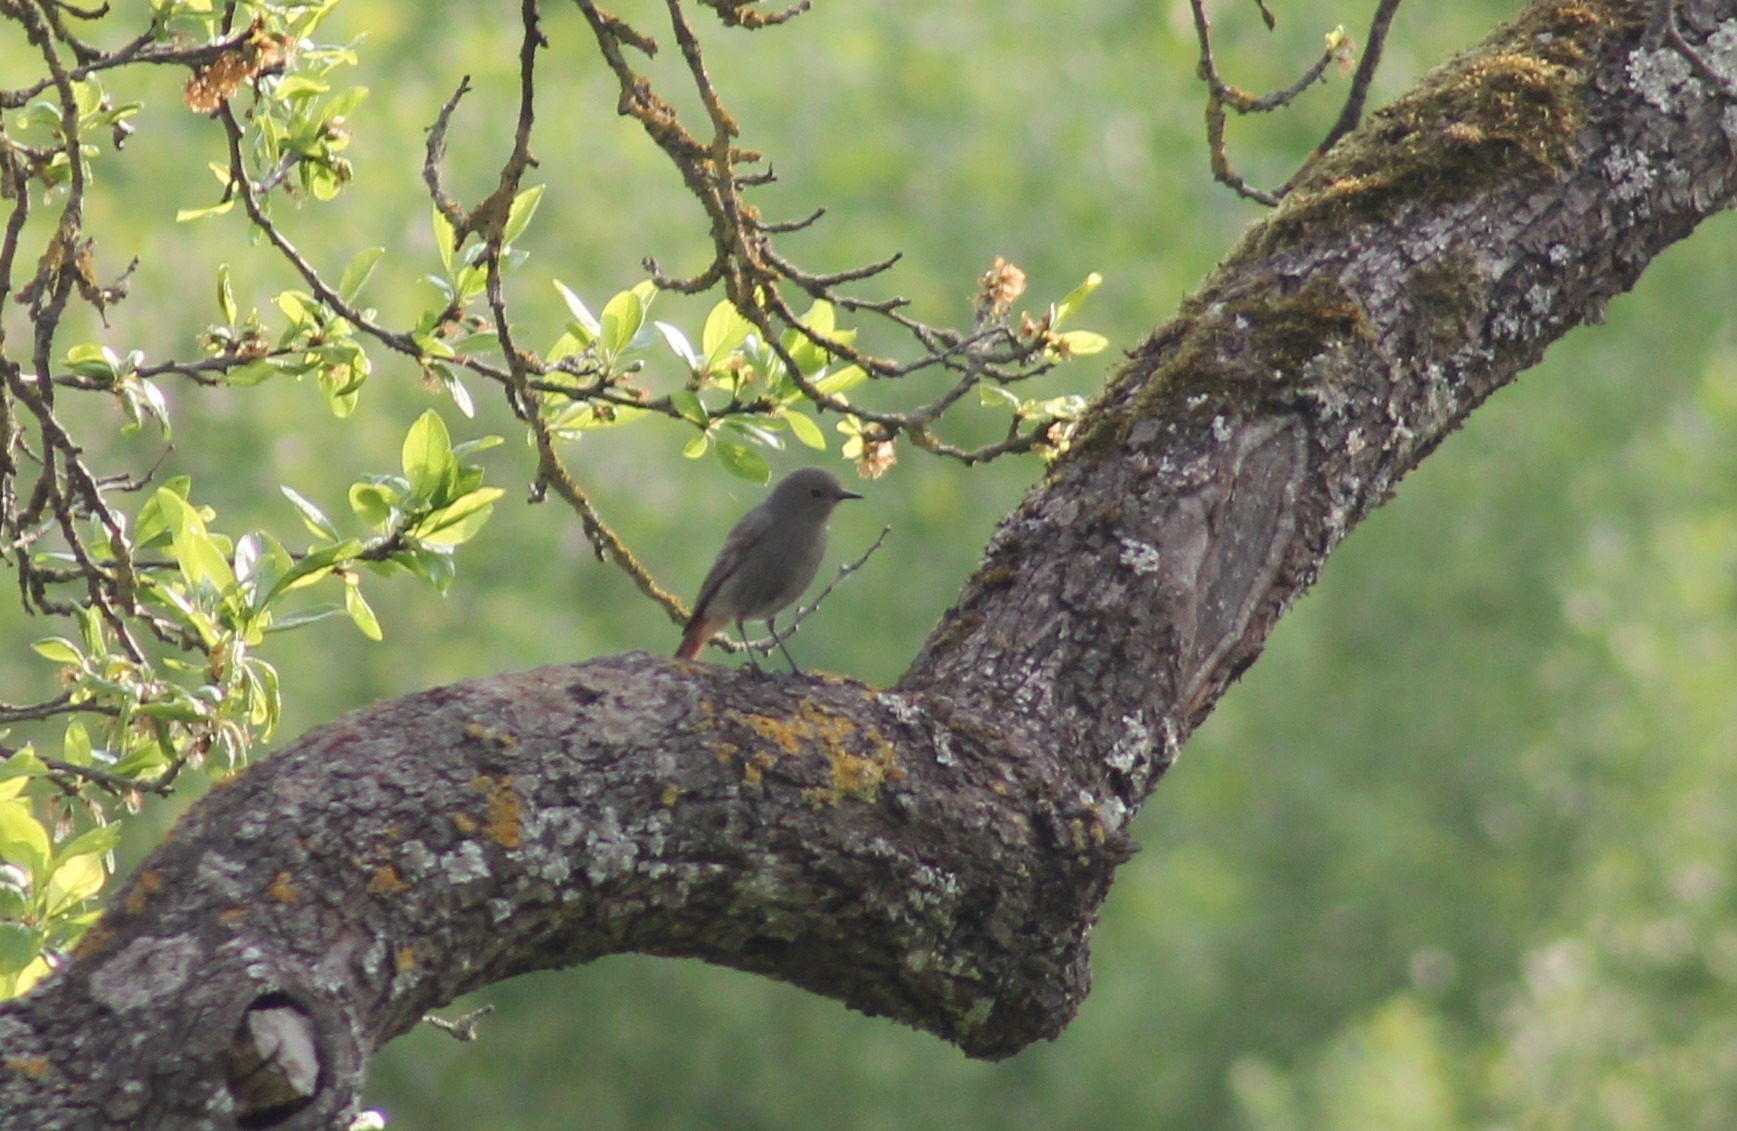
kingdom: Animalia
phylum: Chordata
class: Aves
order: Passeriformes
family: Muscicapidae
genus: Phoenicurus
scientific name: Phoenicurus ochruros
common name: Black redstart
